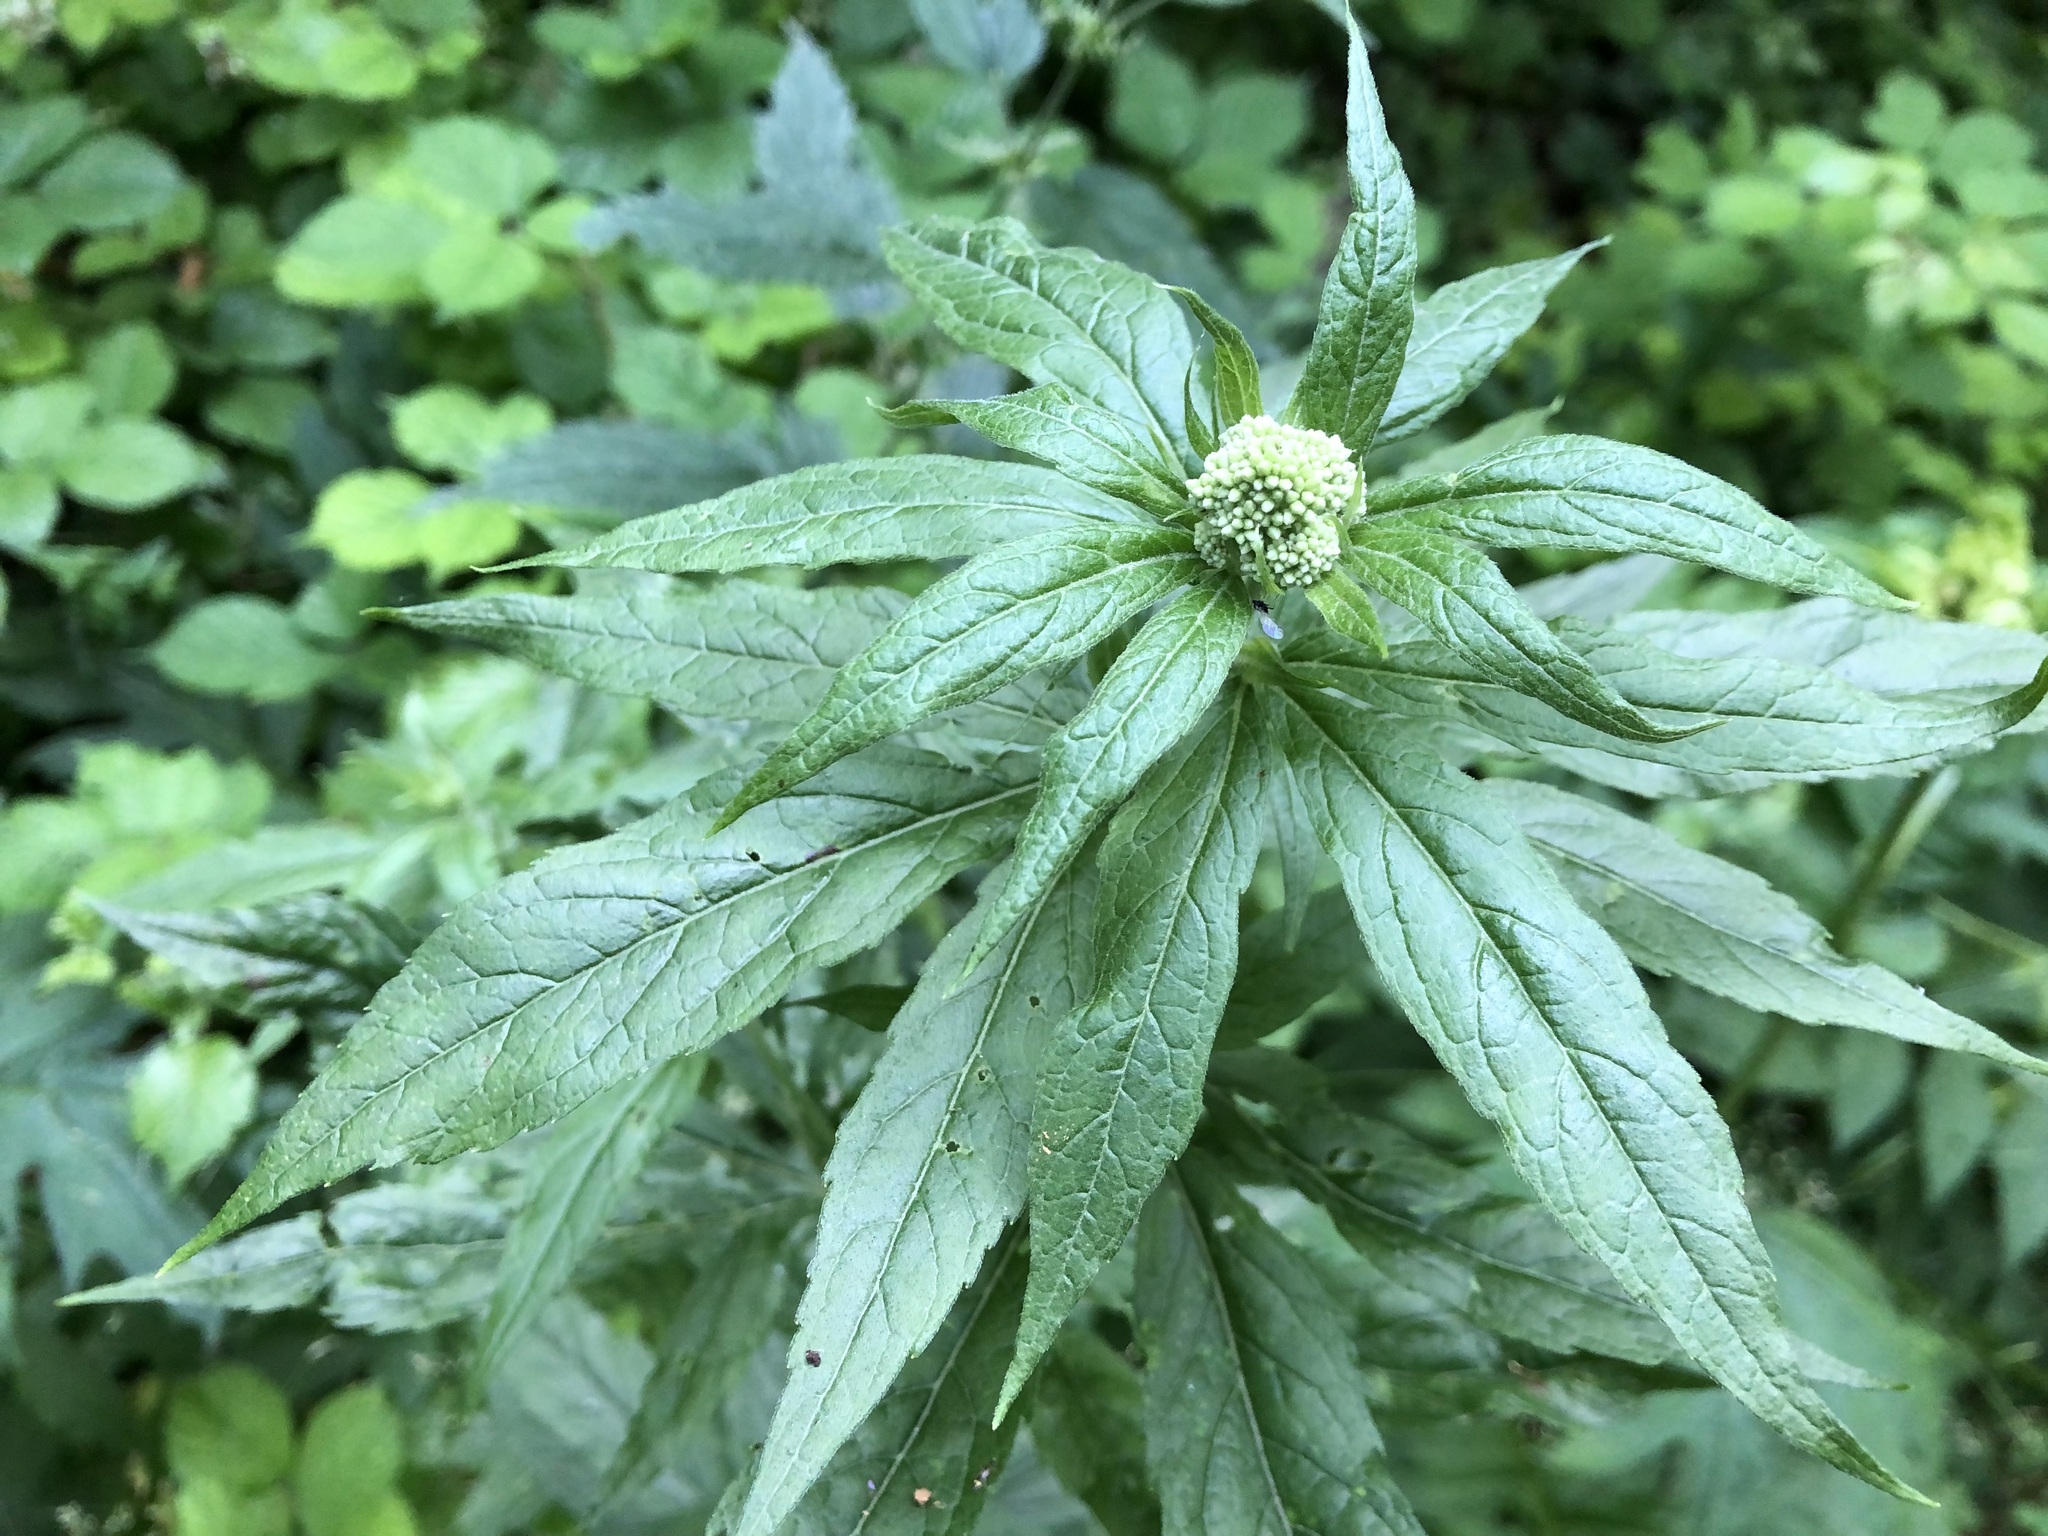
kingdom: Plantae
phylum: Tracheophyta
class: Magnoliopsida
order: Asterales
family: Asteraceae
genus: Eupatorium
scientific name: Eupatorium cannabinum
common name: Hemp-agrimony
